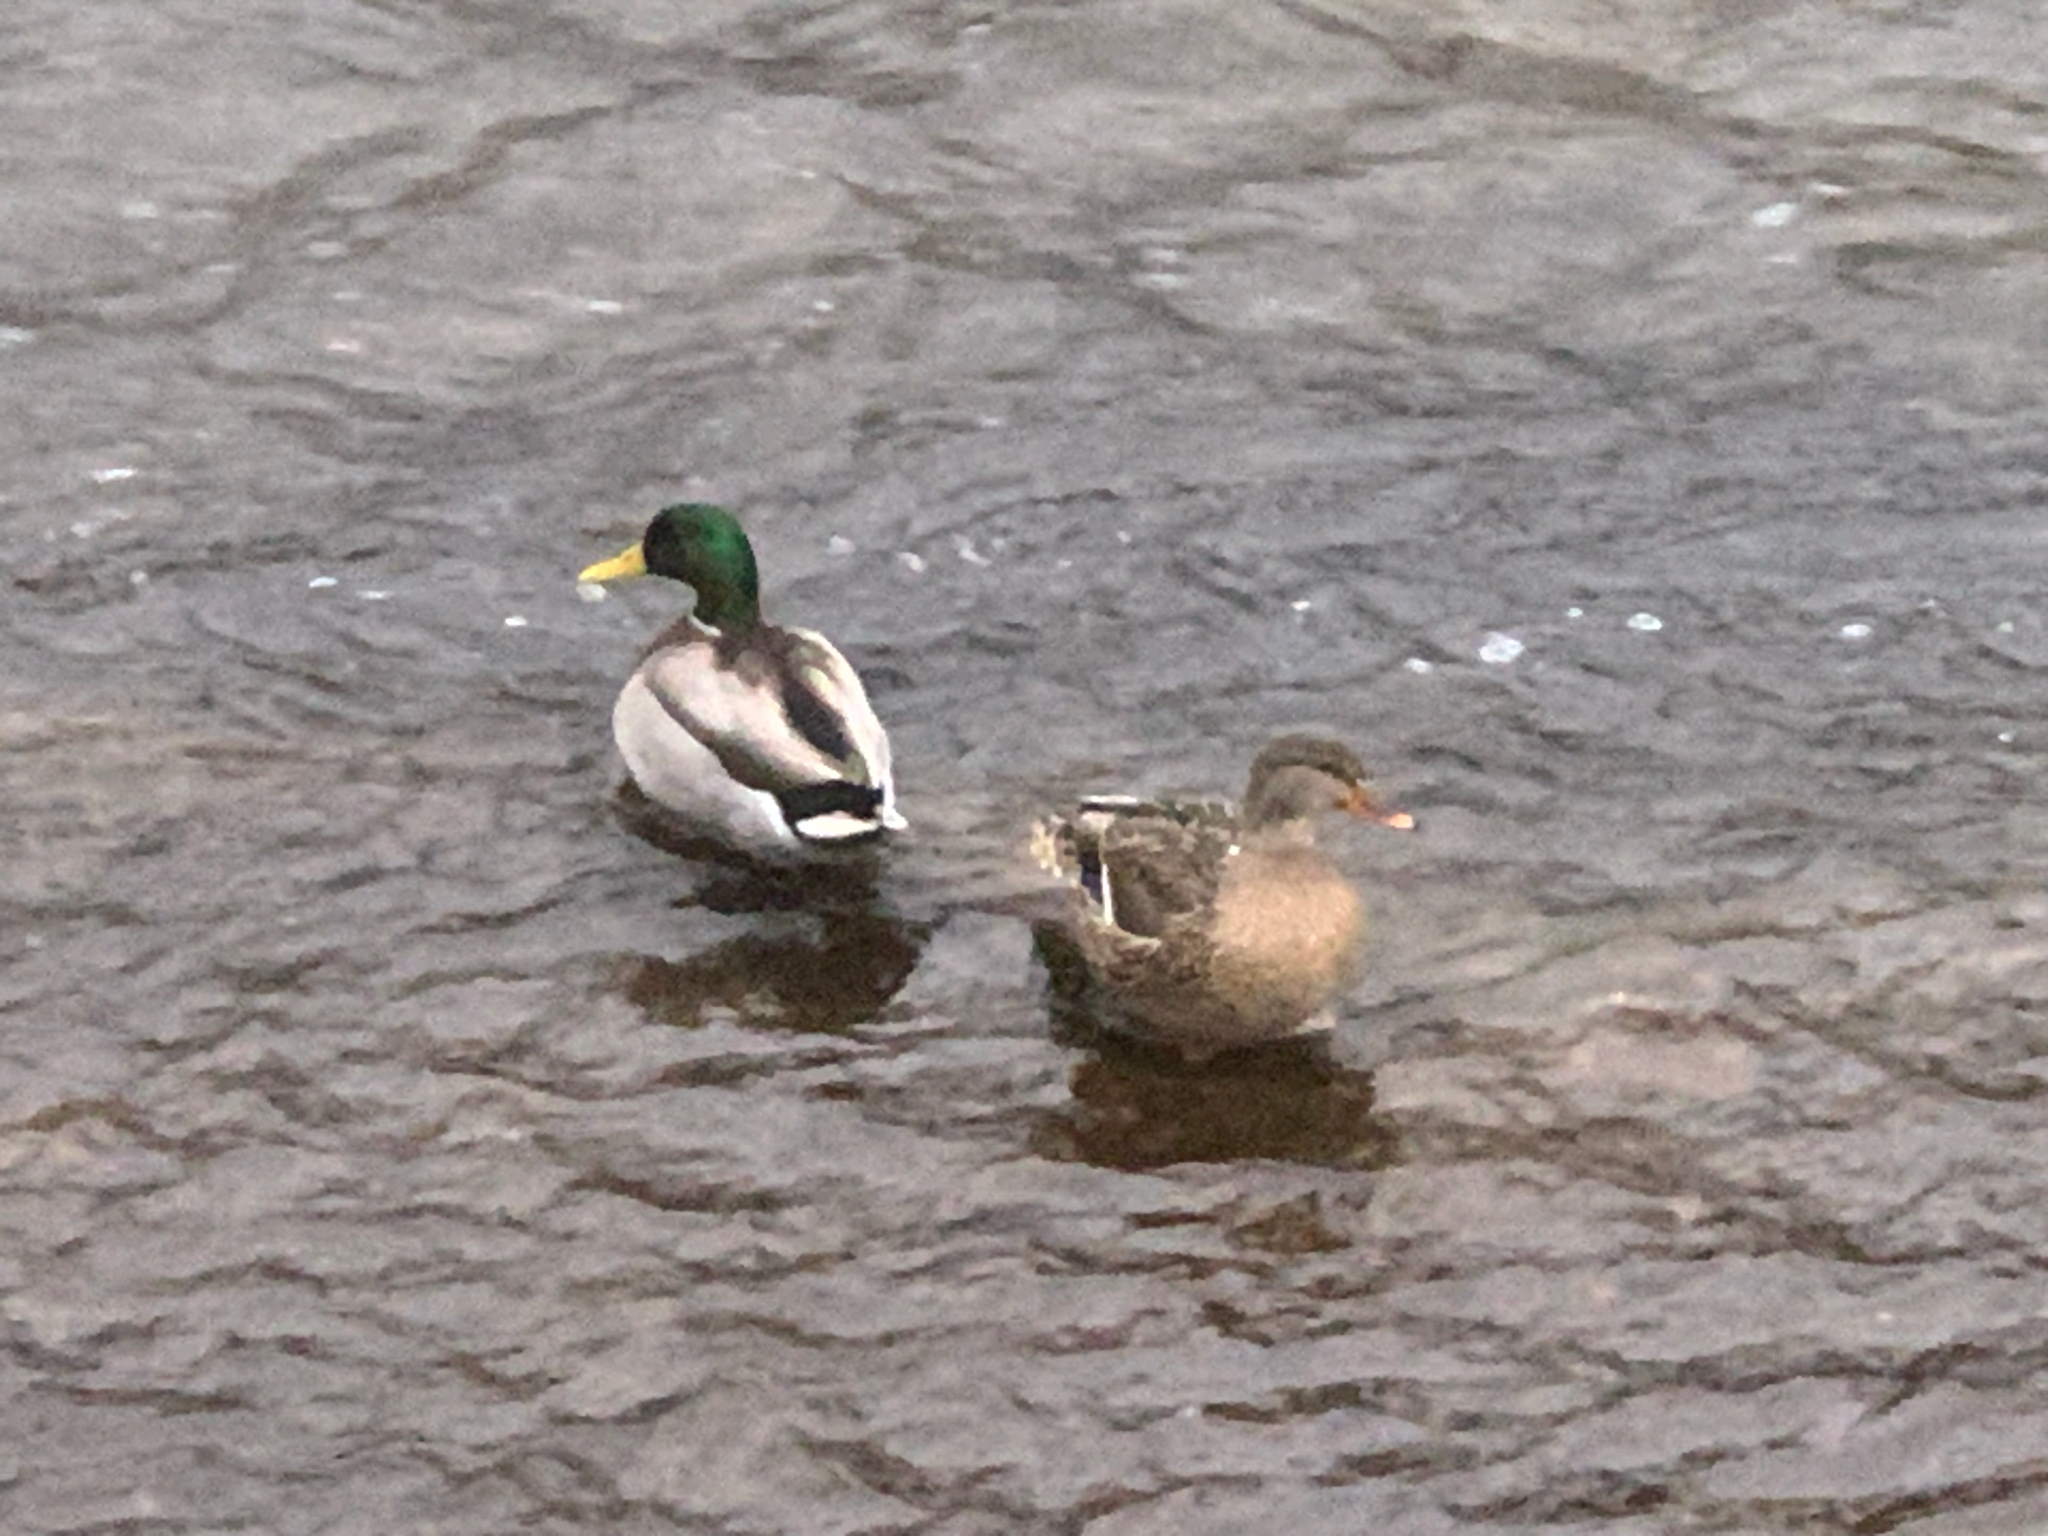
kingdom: Animalia
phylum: Chordata
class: Aves
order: Anseriformes
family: Anatidae
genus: Anas
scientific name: Anas platyrhynchos
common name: Mallard
